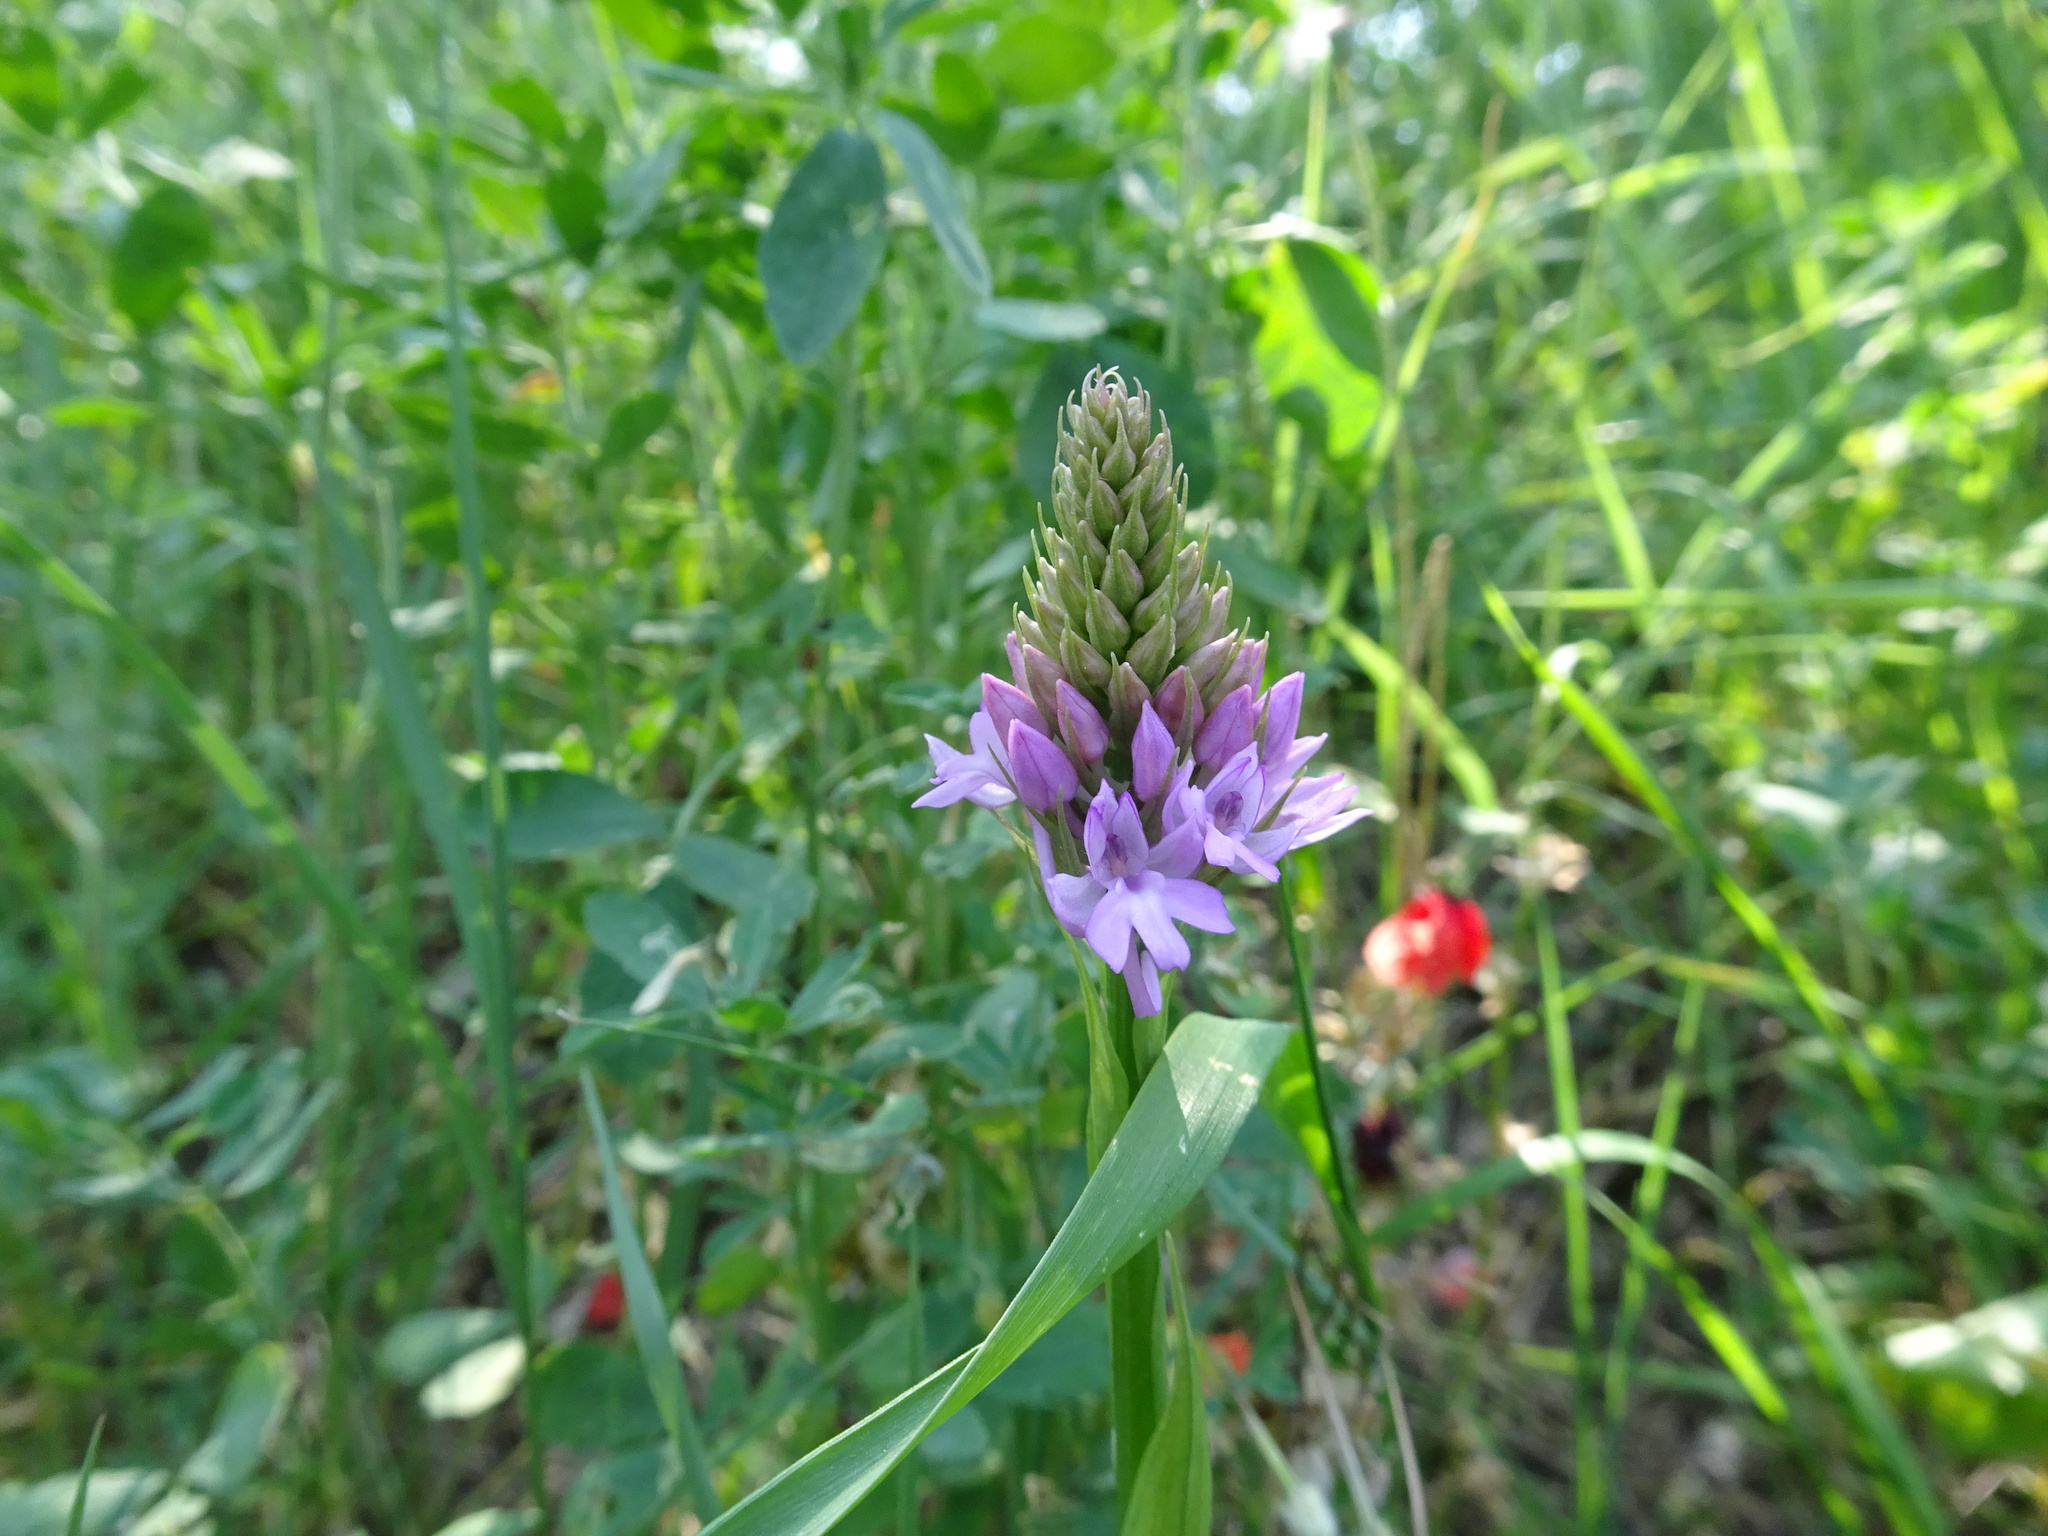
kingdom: Plantae
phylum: Tracheophyta
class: Liliopsida
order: Asparagales
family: Orchidaceae
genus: Anacamptis
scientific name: Anacamptis pyramidalis
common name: Pyramidal orchid
